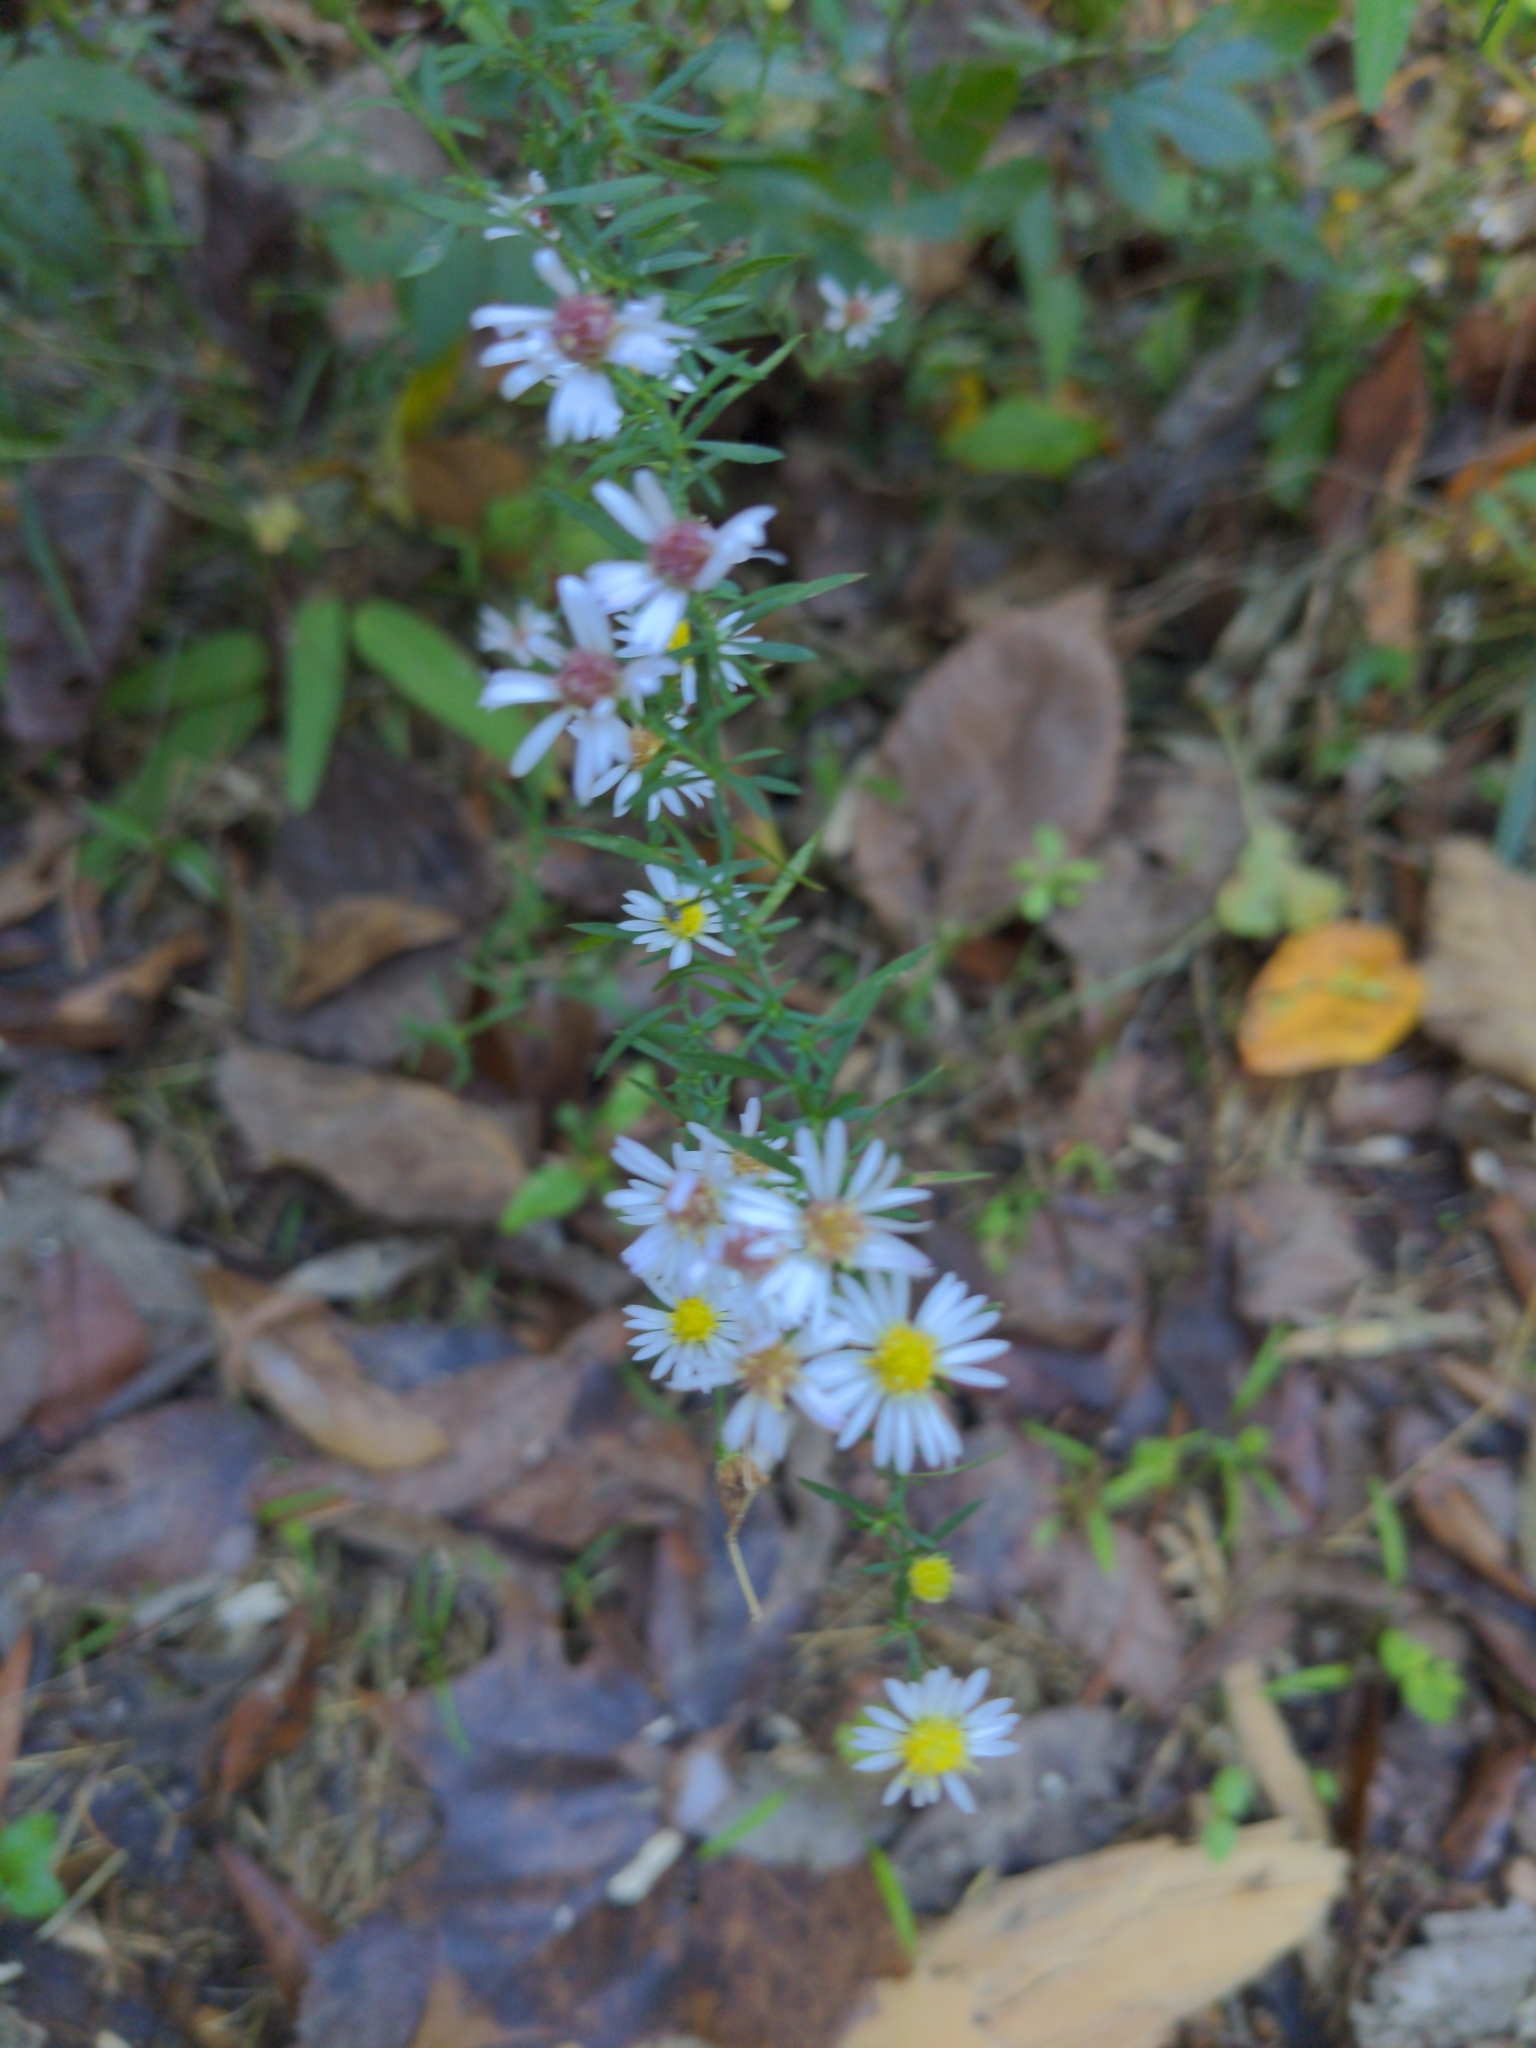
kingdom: Plantae
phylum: Tracheophyta
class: Magnoliopsida
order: Asterales
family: Asteraceae
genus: Symphyotrichum
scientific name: Symphyotrichum lateriflorum
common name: Calico aster
